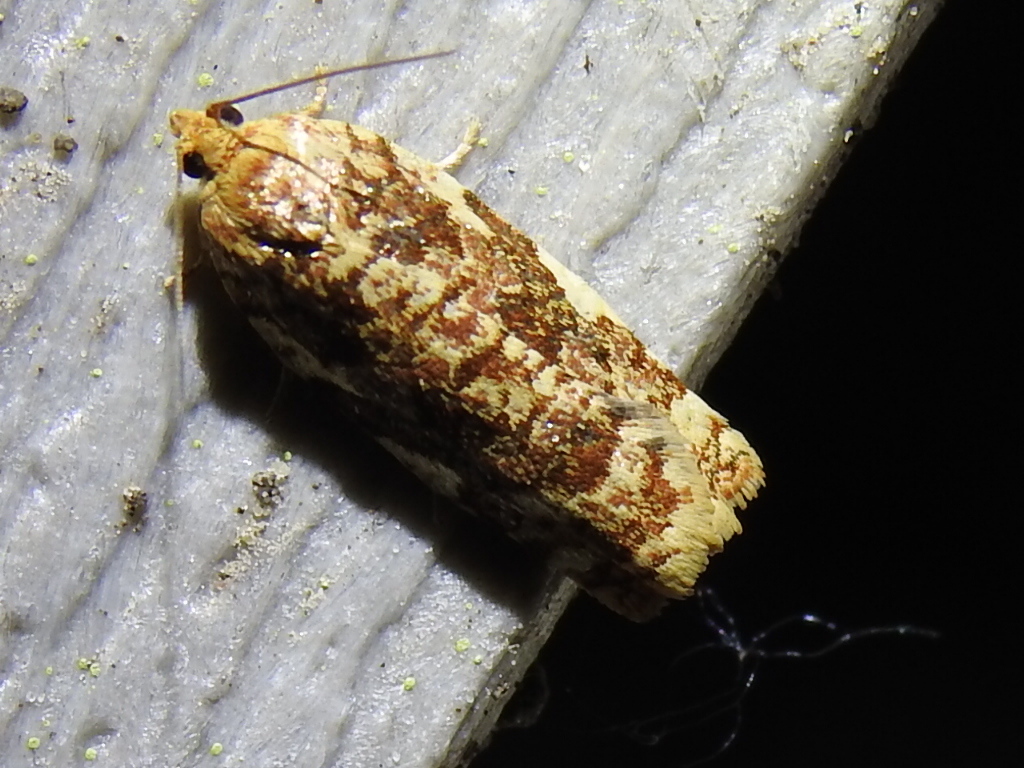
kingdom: Animalia
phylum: Arthropoda
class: Insecta
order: Lepidoptera
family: Tortricidae
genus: Archips
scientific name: Archips argyrospila
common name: Fruit-tree leafroller moth
